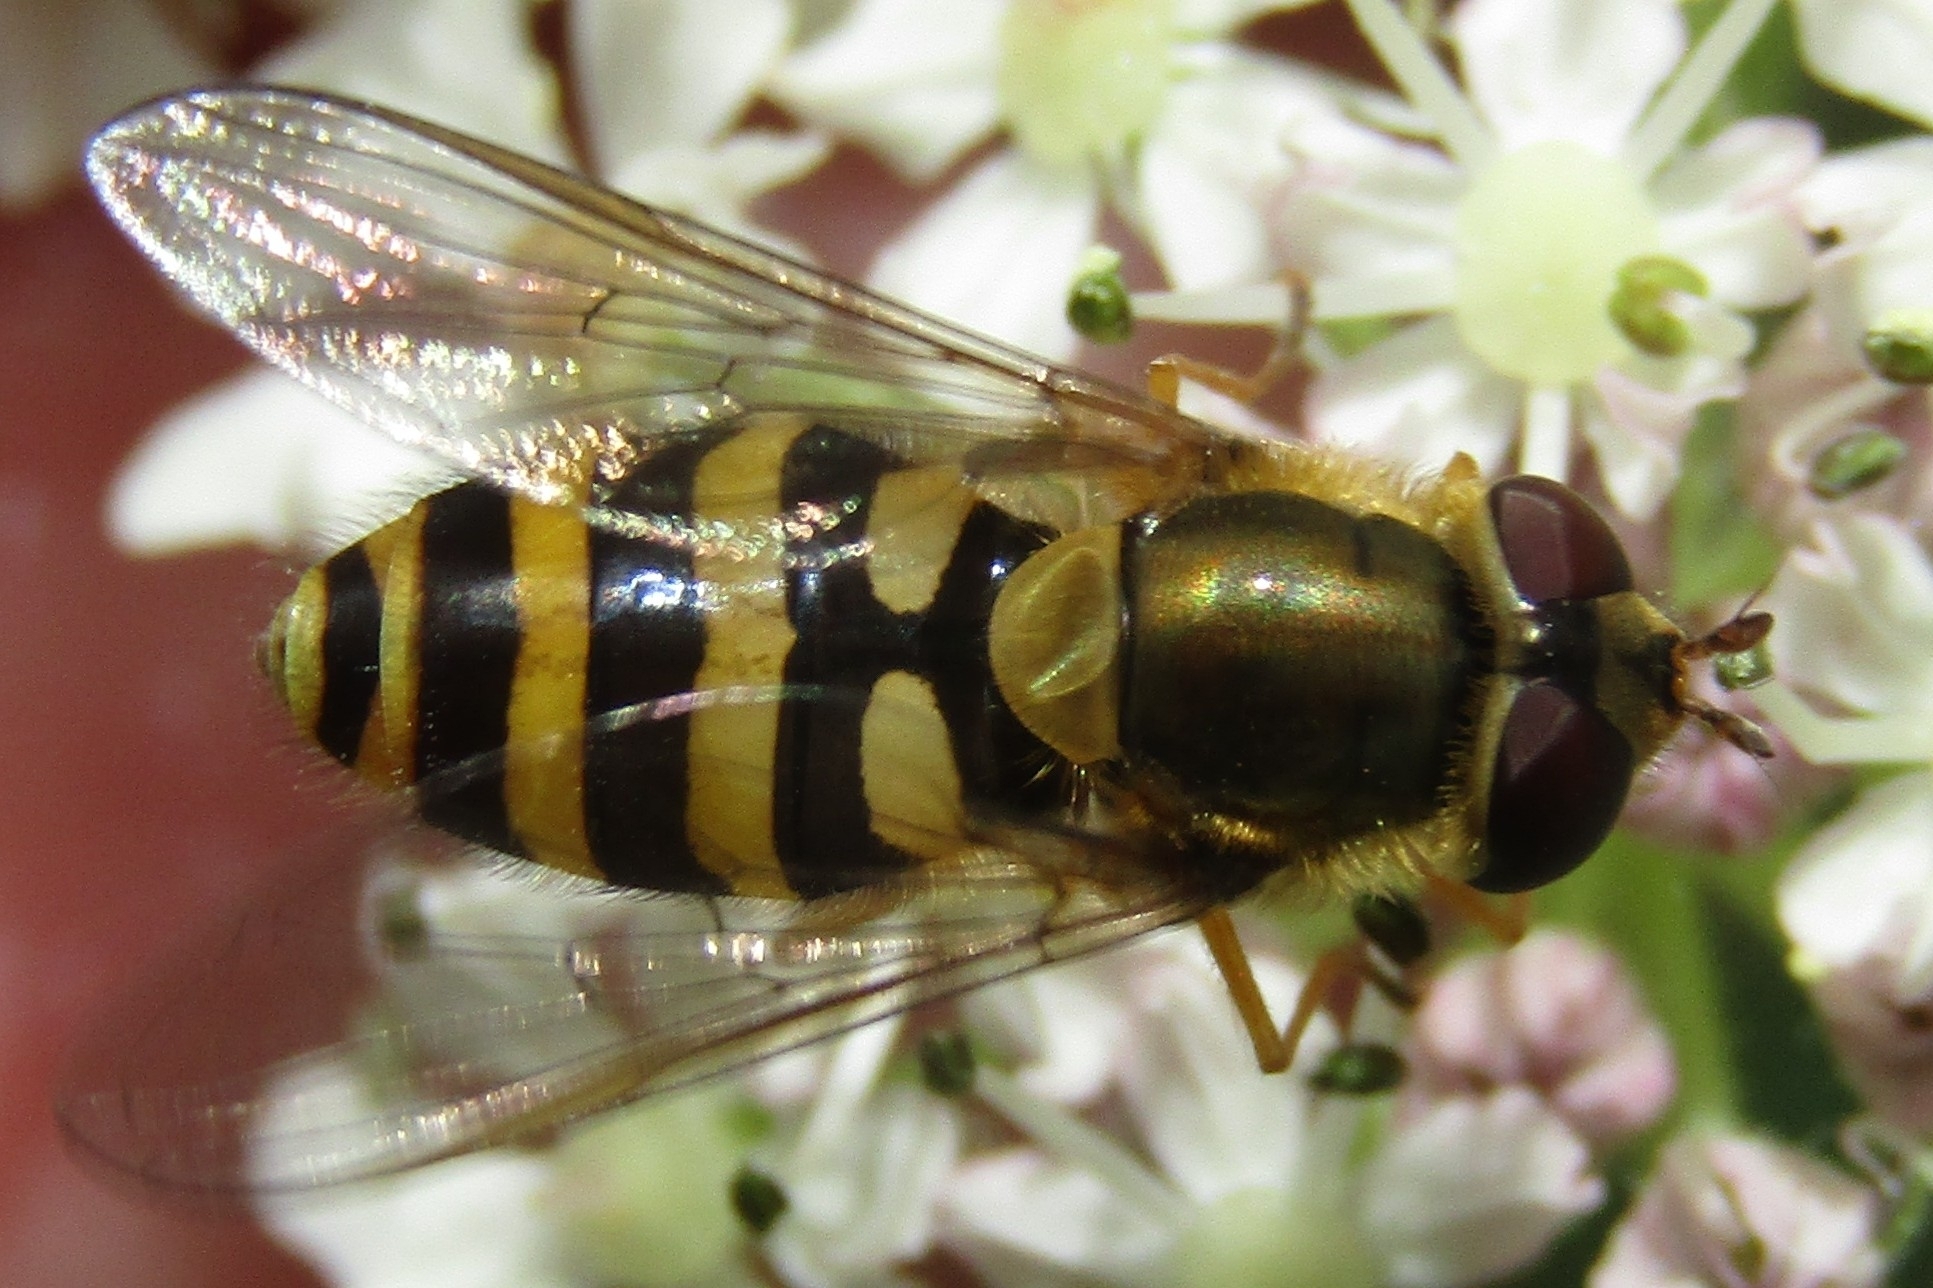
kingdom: Animalia
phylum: Arthropoda
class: Insecta
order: Diptera
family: Syrphidae
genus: Syrphus
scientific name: Syrphus
